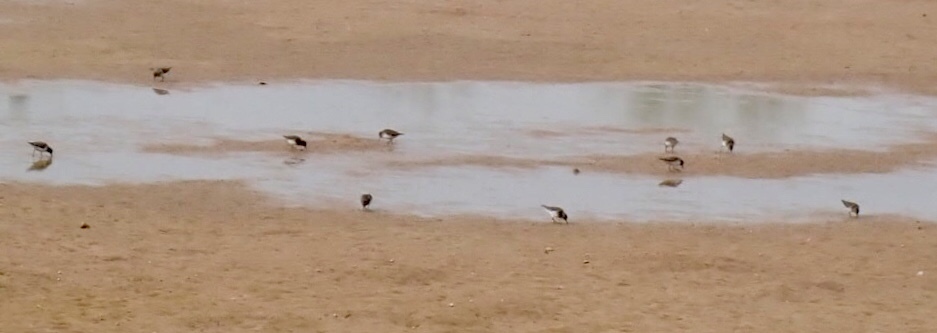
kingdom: Animalia
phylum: Chordata
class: Aves
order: Charadriiformes
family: Scolopacidae
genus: Calidris
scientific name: Calidris minutilla
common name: Least sandpiper
